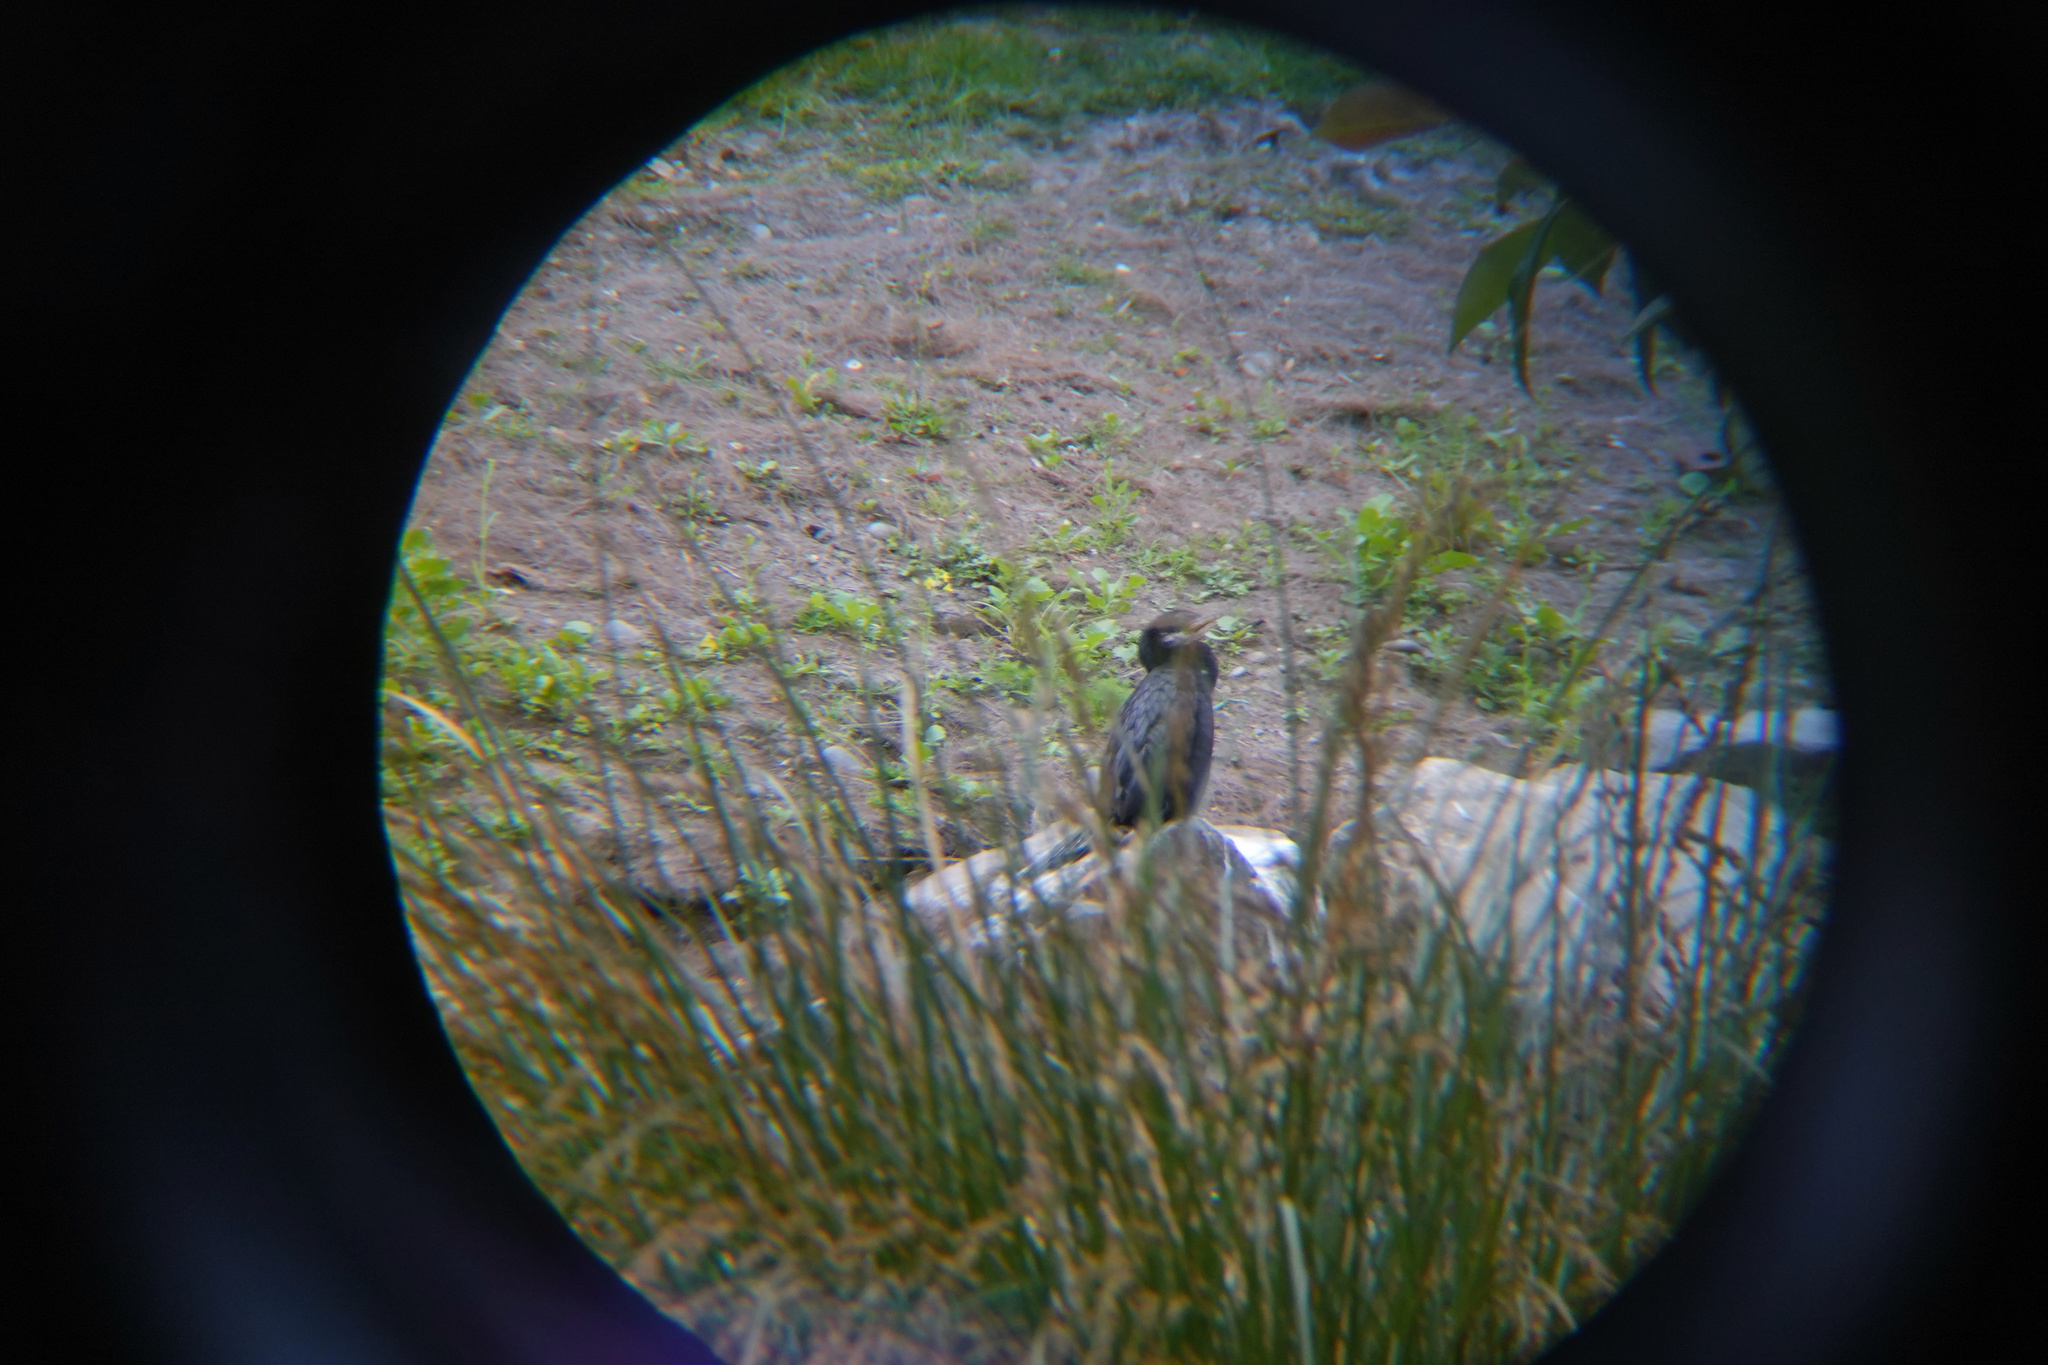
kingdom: Animalia
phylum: Chordata
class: Aves
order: Suliformes
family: Phalacrocoracidae
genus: Microcarbo
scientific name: Microcarbo melanoleucos
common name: Little pied cormorant
